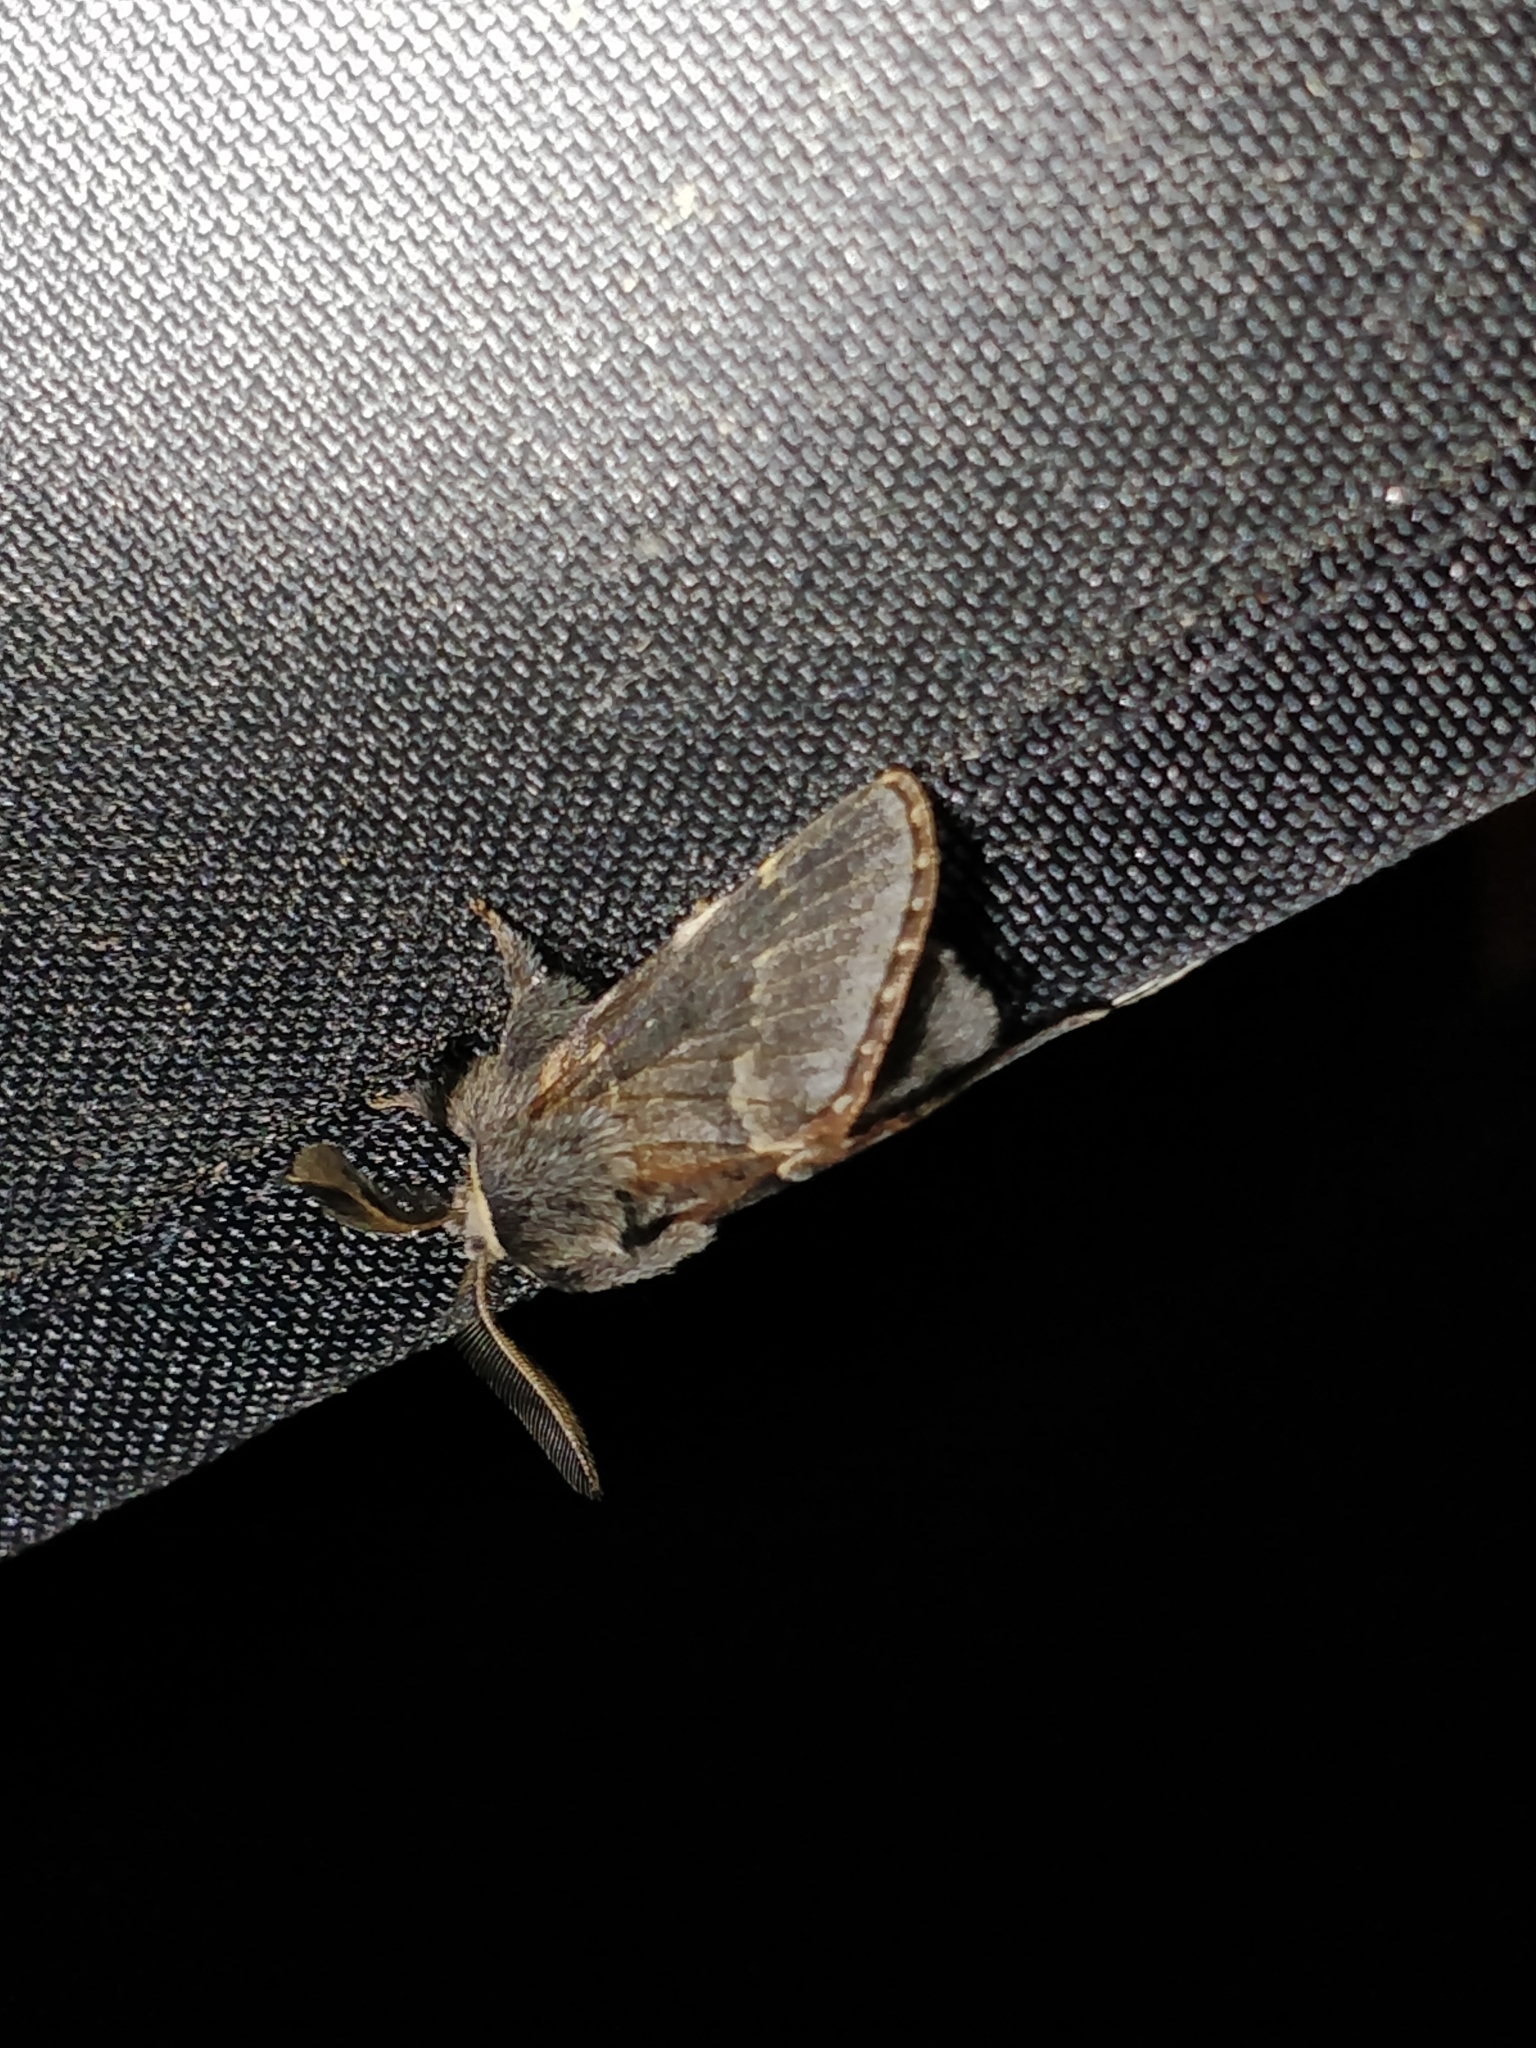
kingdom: Animalia
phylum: Arthropoda
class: Insecta
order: Lepidoptera
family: Lasiocampidae
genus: Poecilocampa
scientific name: Poecilocampa populi
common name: December moth
